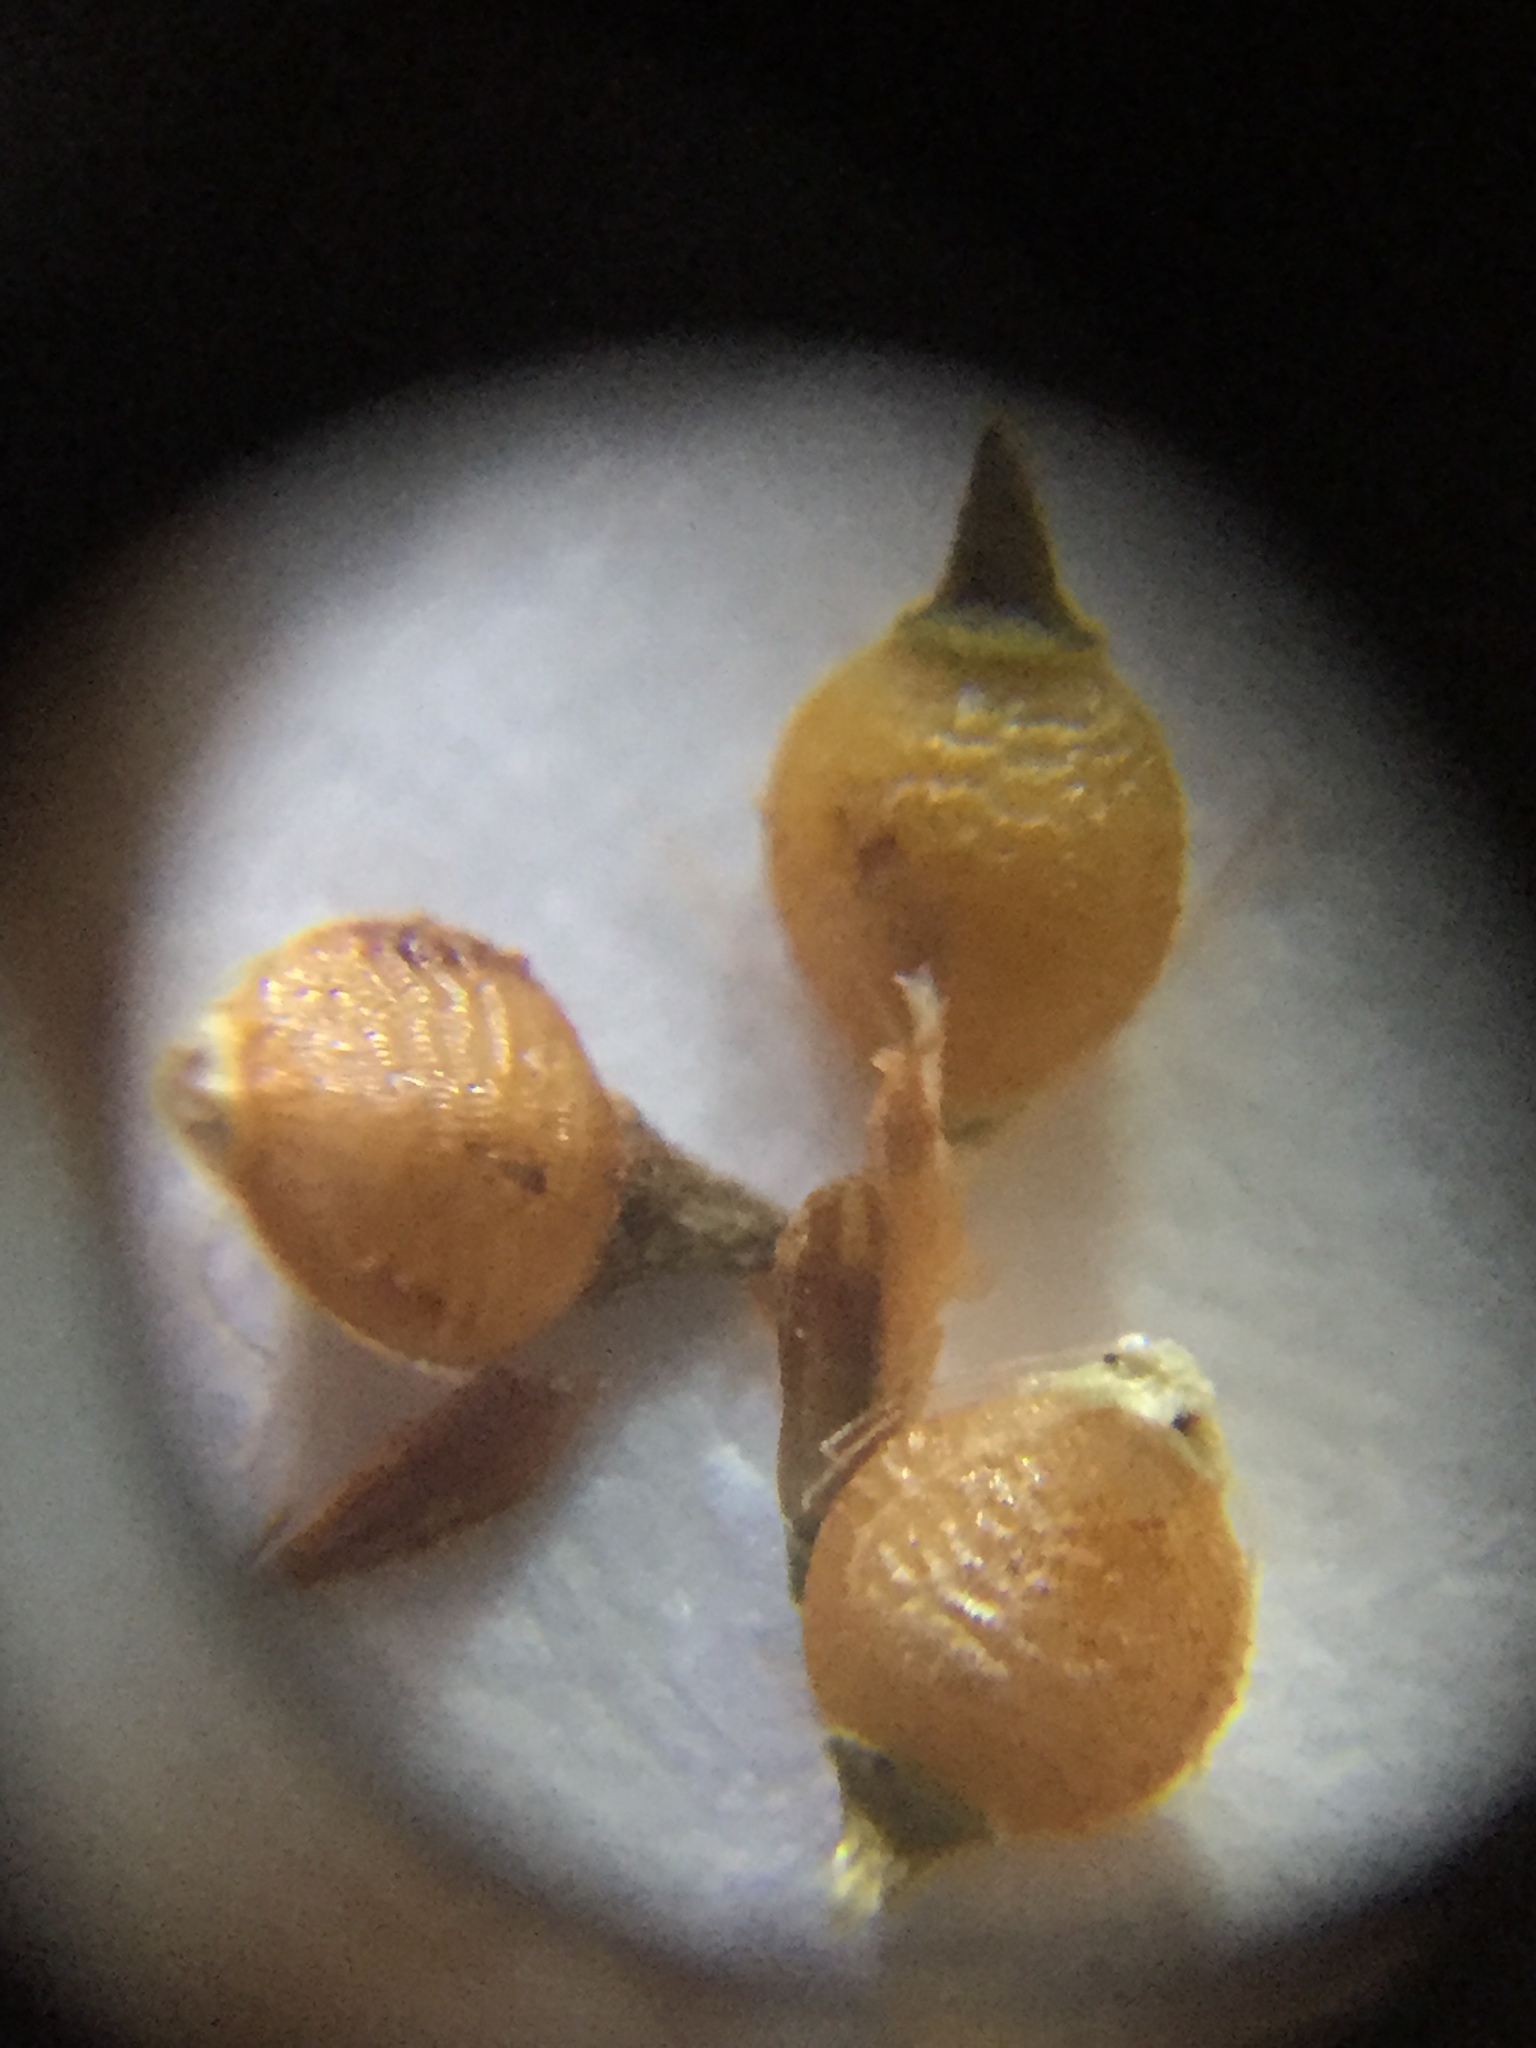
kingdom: Plantae
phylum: Tracheophyta
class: Liliopsida
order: Poales
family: Cyperaceae
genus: Rhynchospora
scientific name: Rhynchospora recognita
